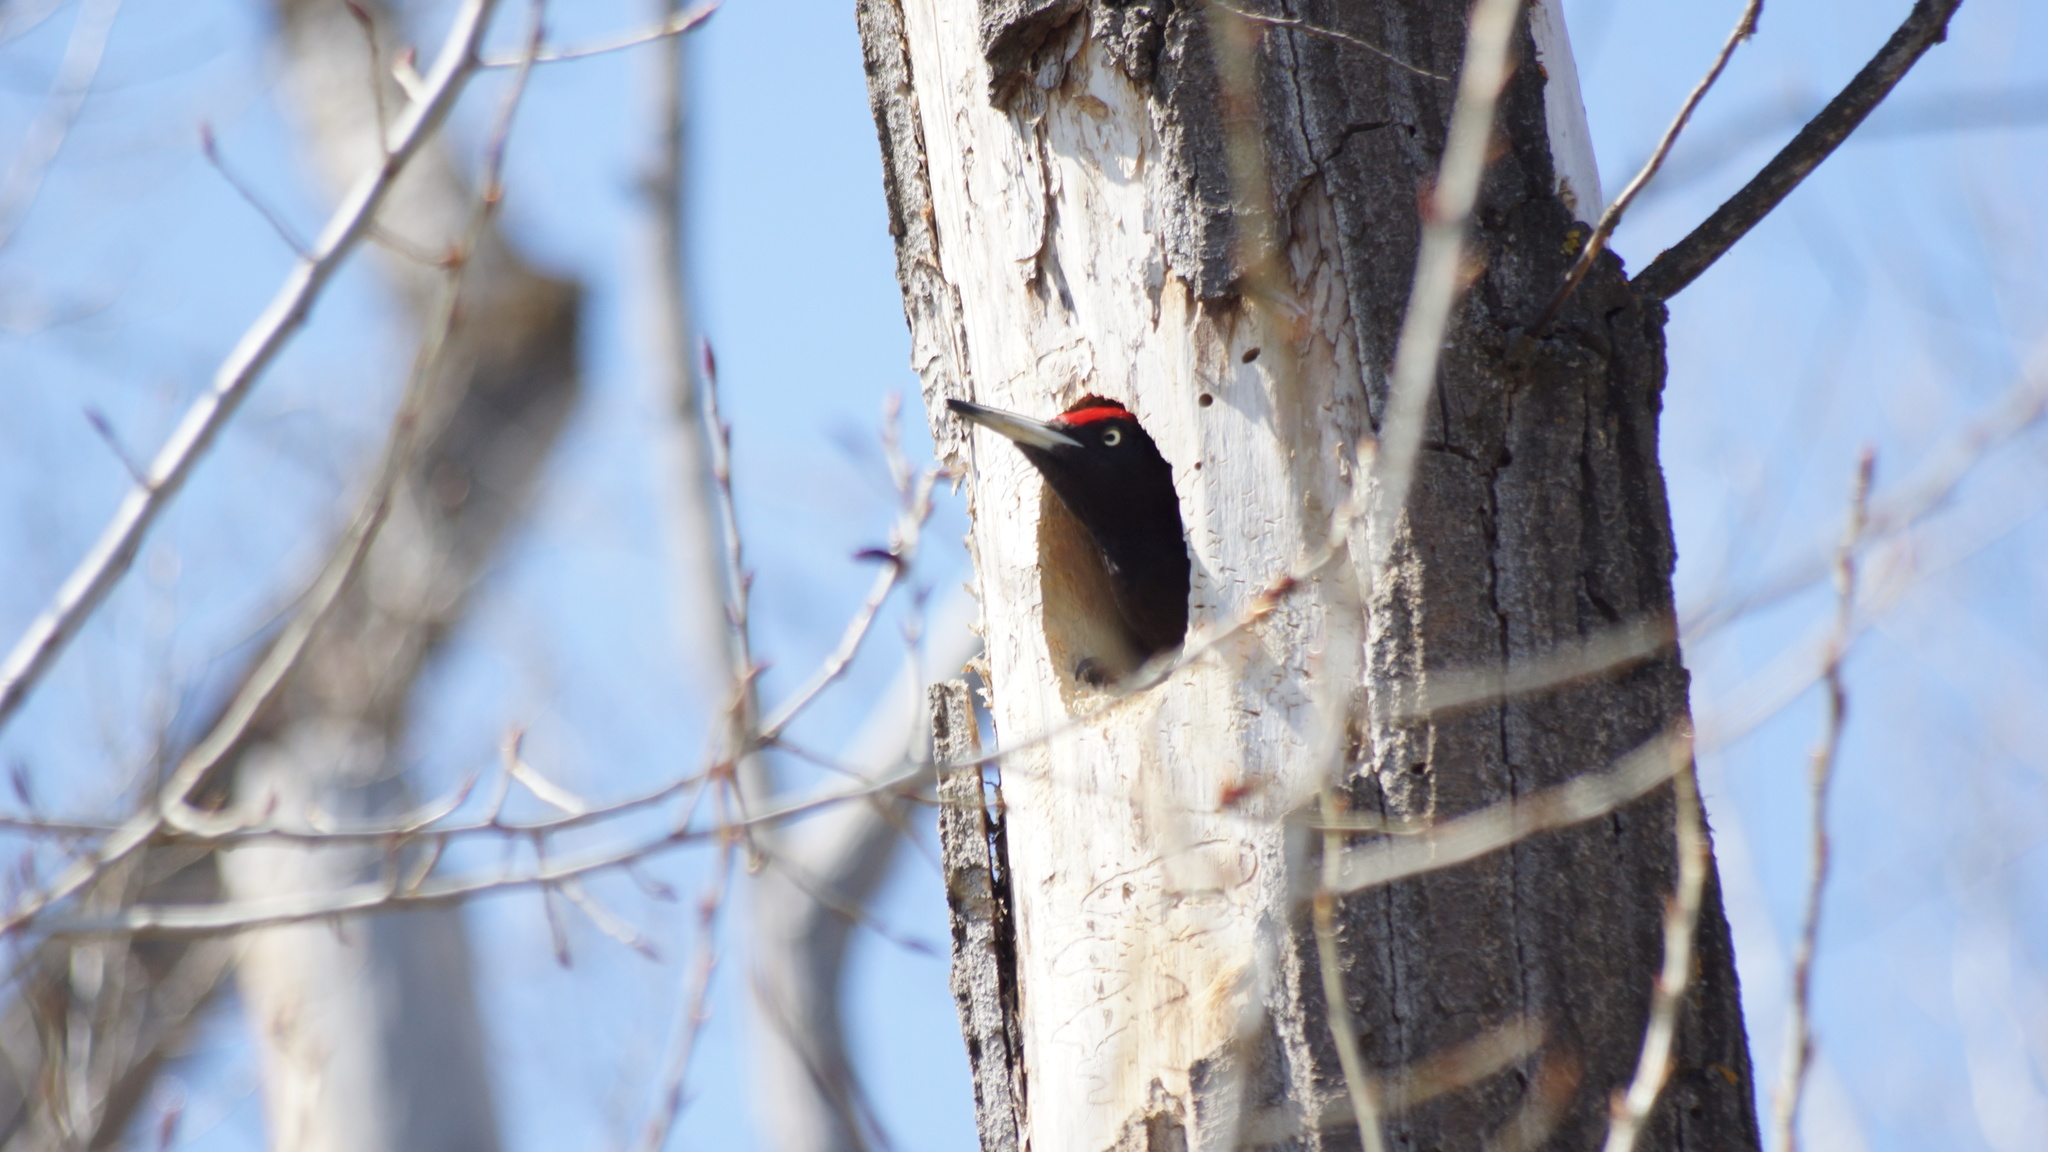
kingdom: Animalia
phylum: Chordata
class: Aves
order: Piciformes
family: Picidae
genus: Dryocopus
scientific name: Dryocopus martius
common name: Black woodpecker
